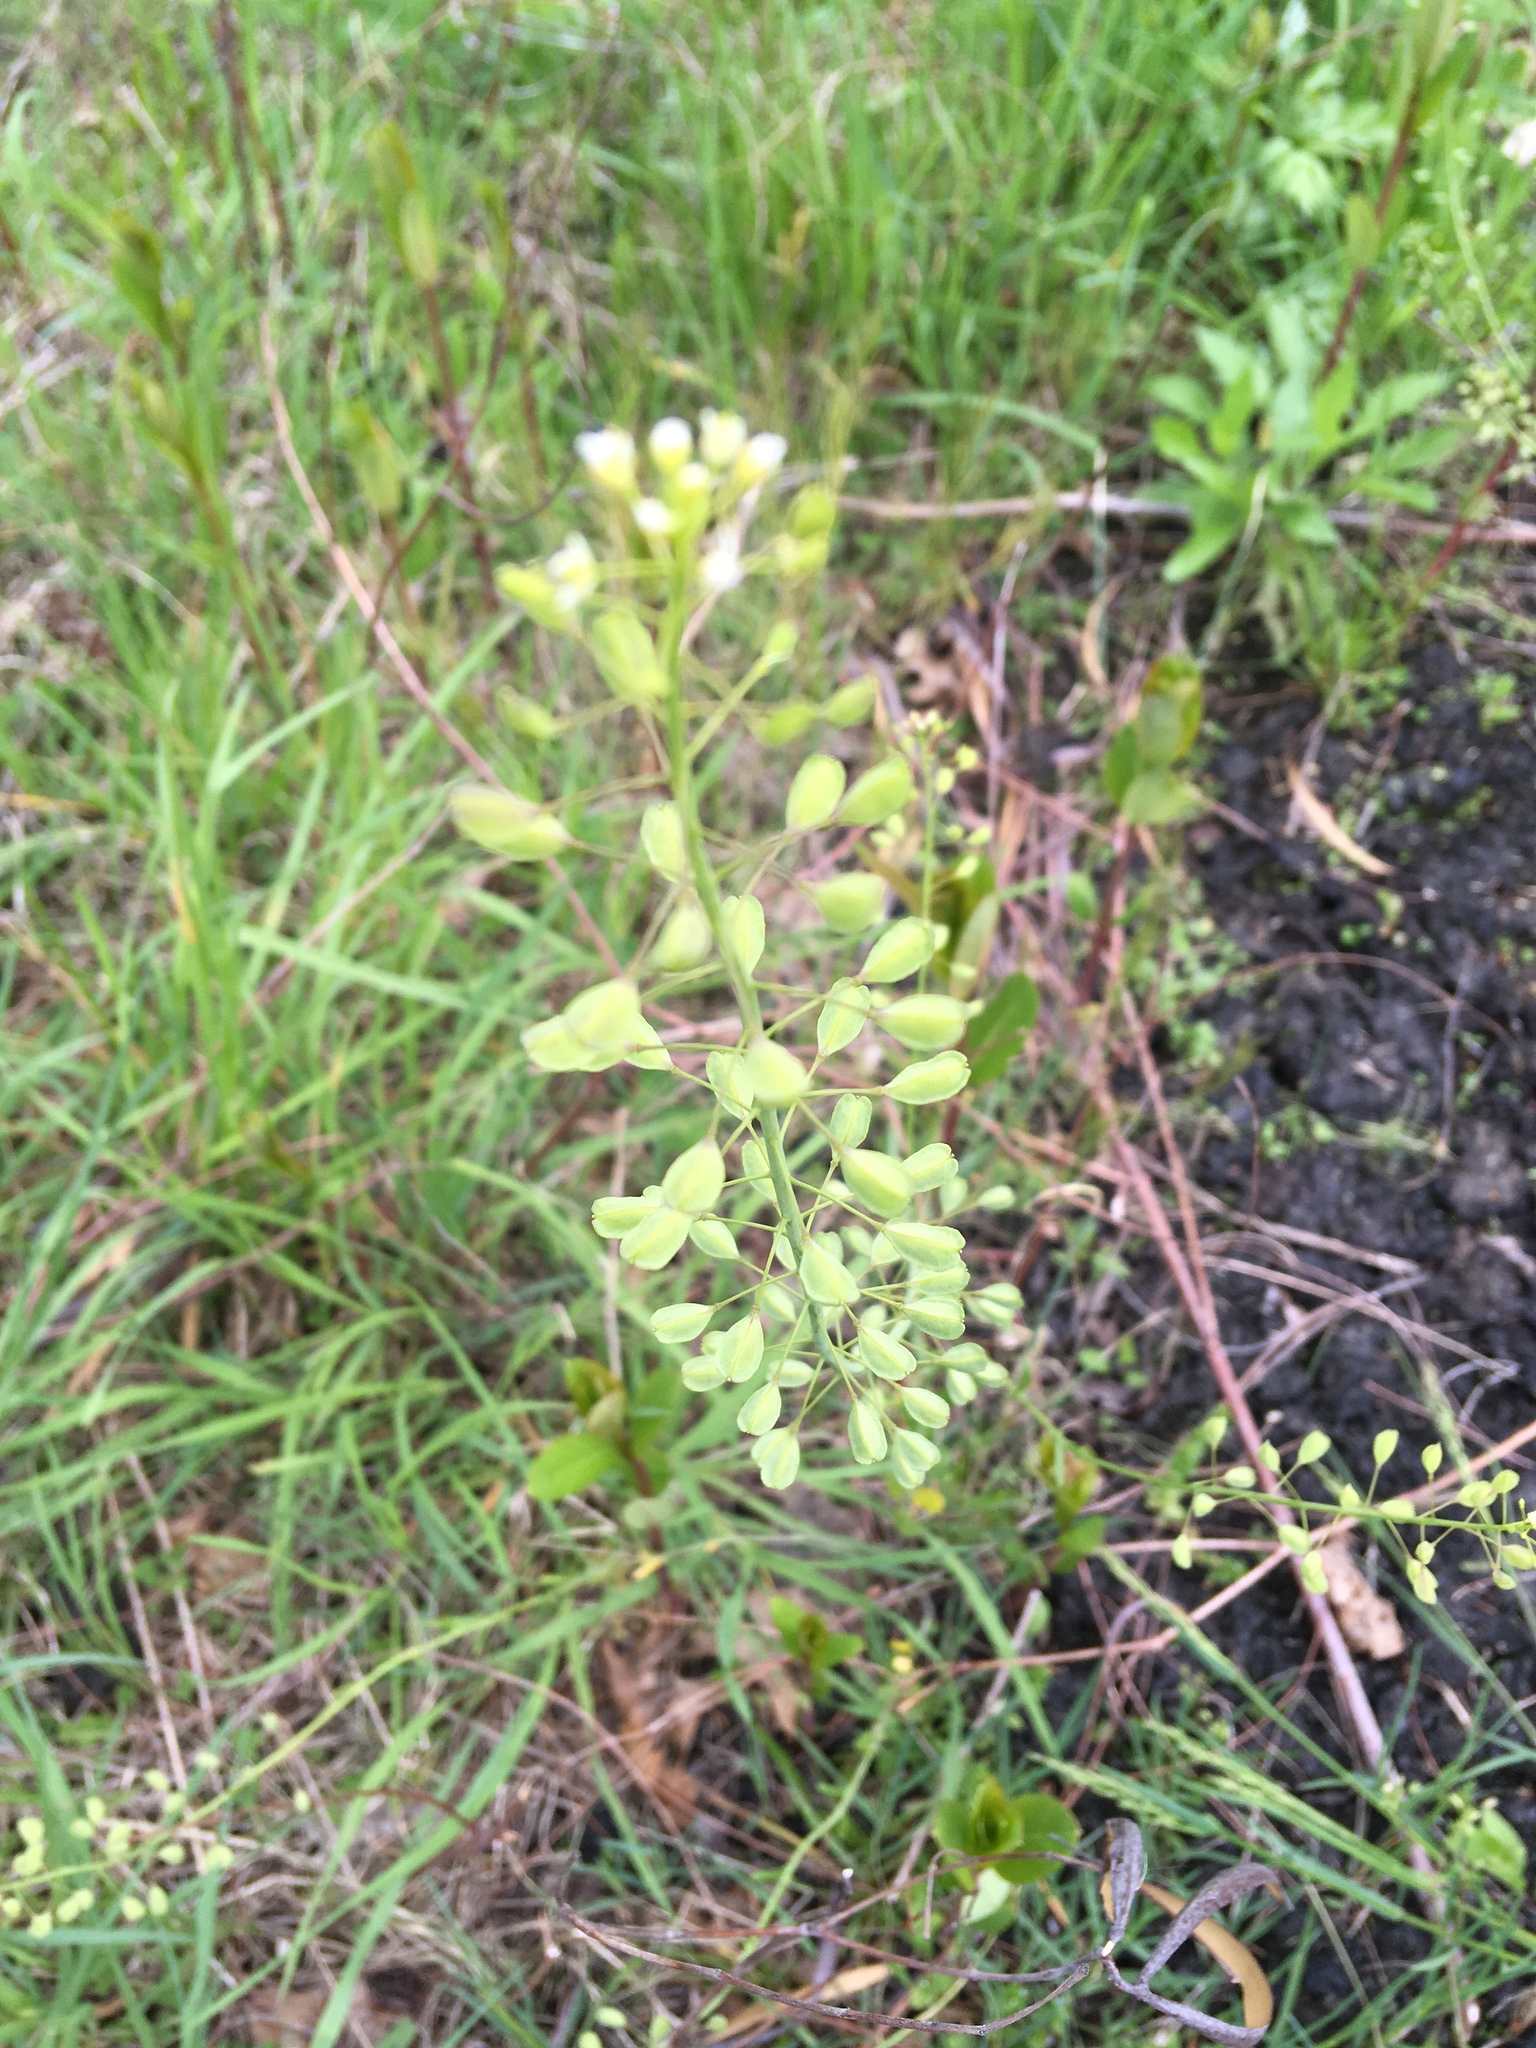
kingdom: Plantae
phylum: Tracheophyta
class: Magnoliopsida
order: Brassicales
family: Brassicaceae
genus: Mummenhoffia
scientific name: Mummenhoffia alliacea
